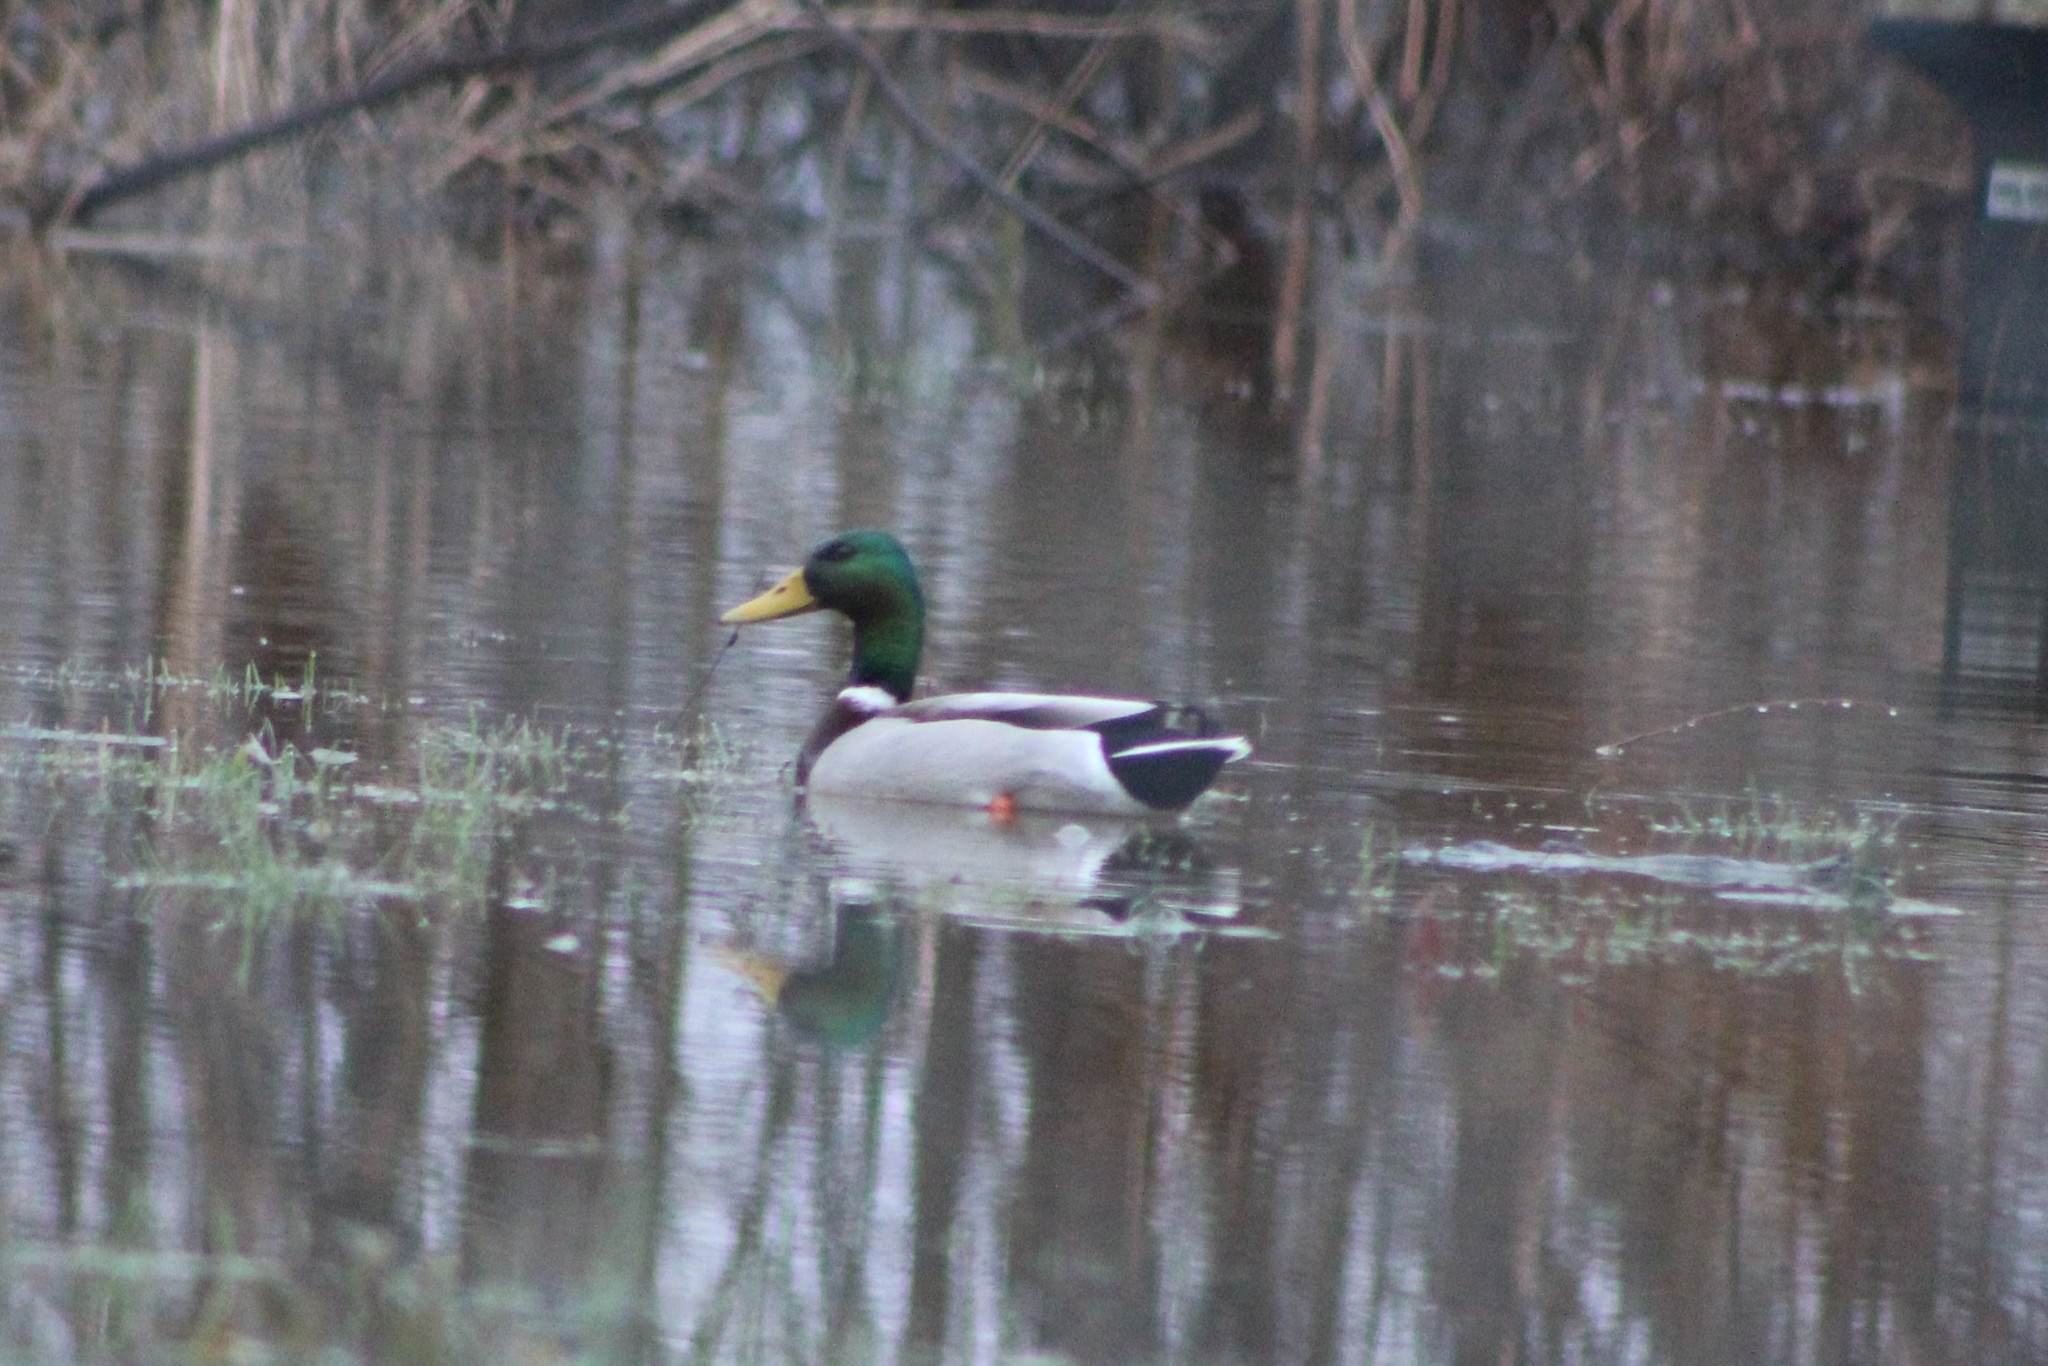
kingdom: Animalia
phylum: Chordata
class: Aves
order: Anseriformes
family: Anatidae
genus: Anas
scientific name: Anas platyrhynchos
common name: Mallard
